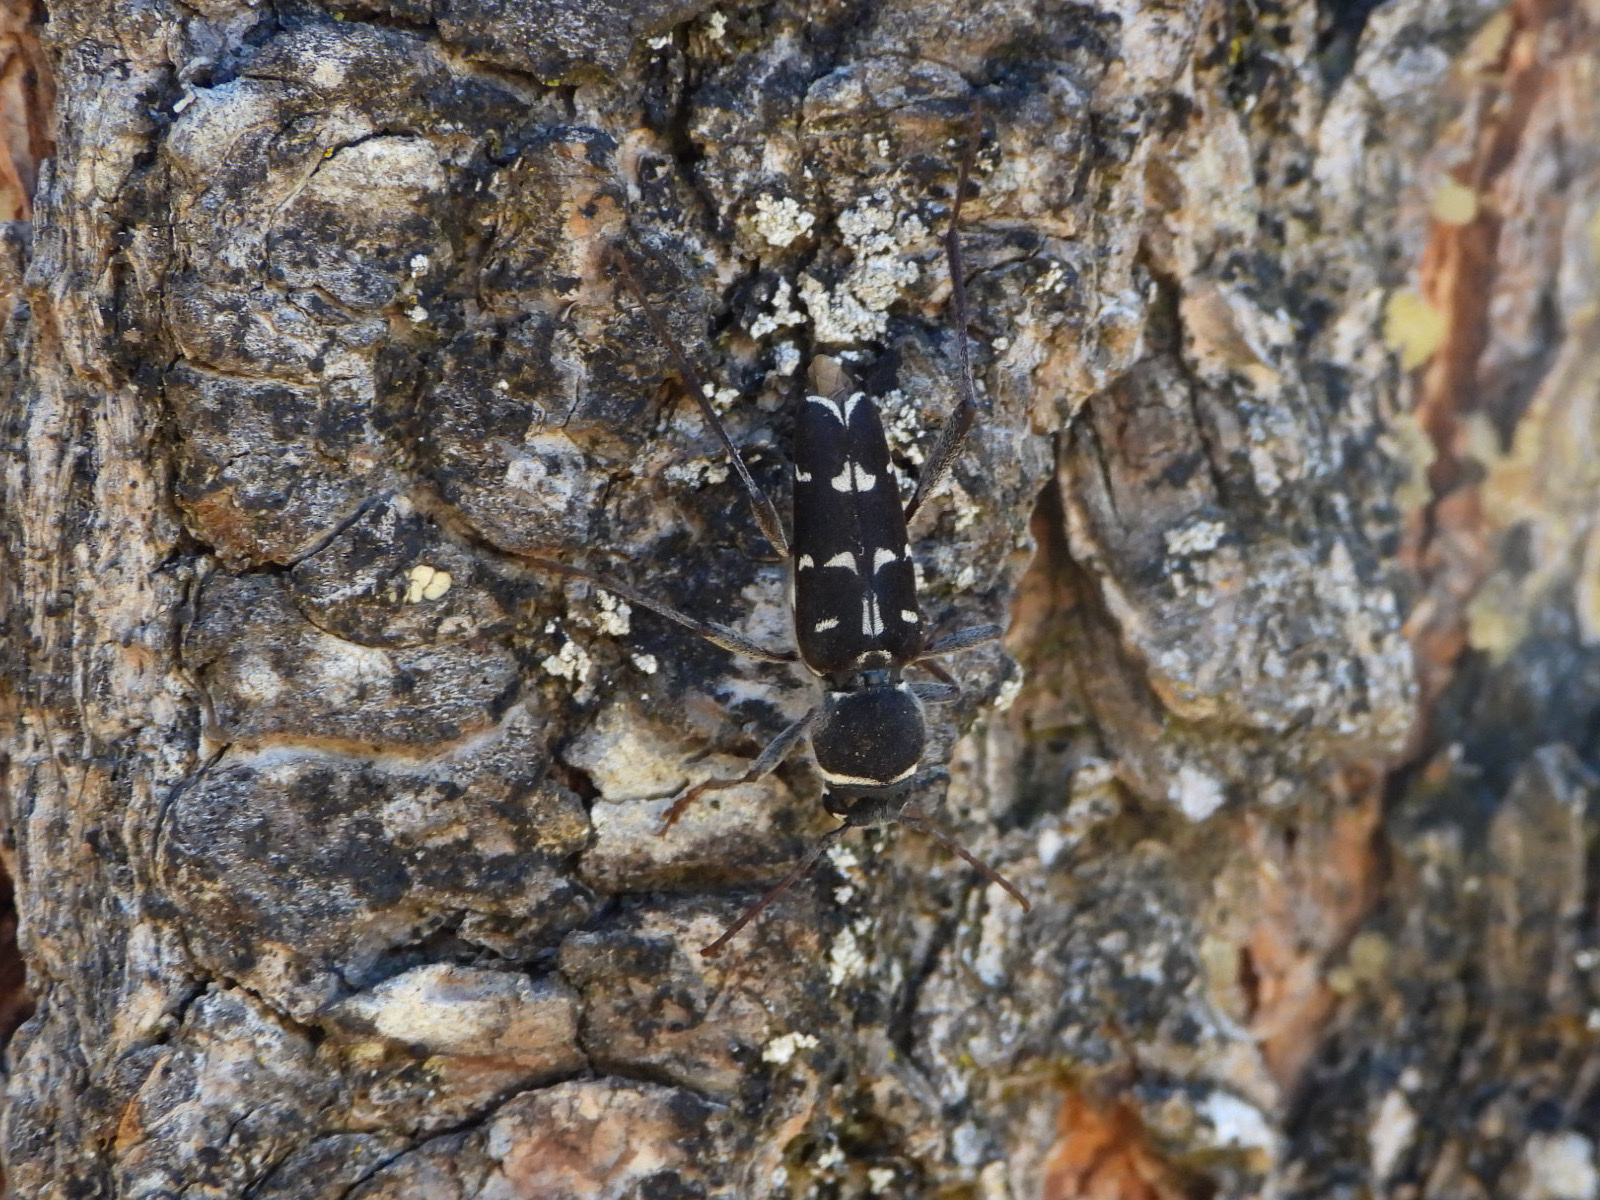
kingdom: Animalia
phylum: Arthropoda
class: Insecta
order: Coleoptera
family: Cerambycidae
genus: Xylotrechus
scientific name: Xylotrechus undulatus
